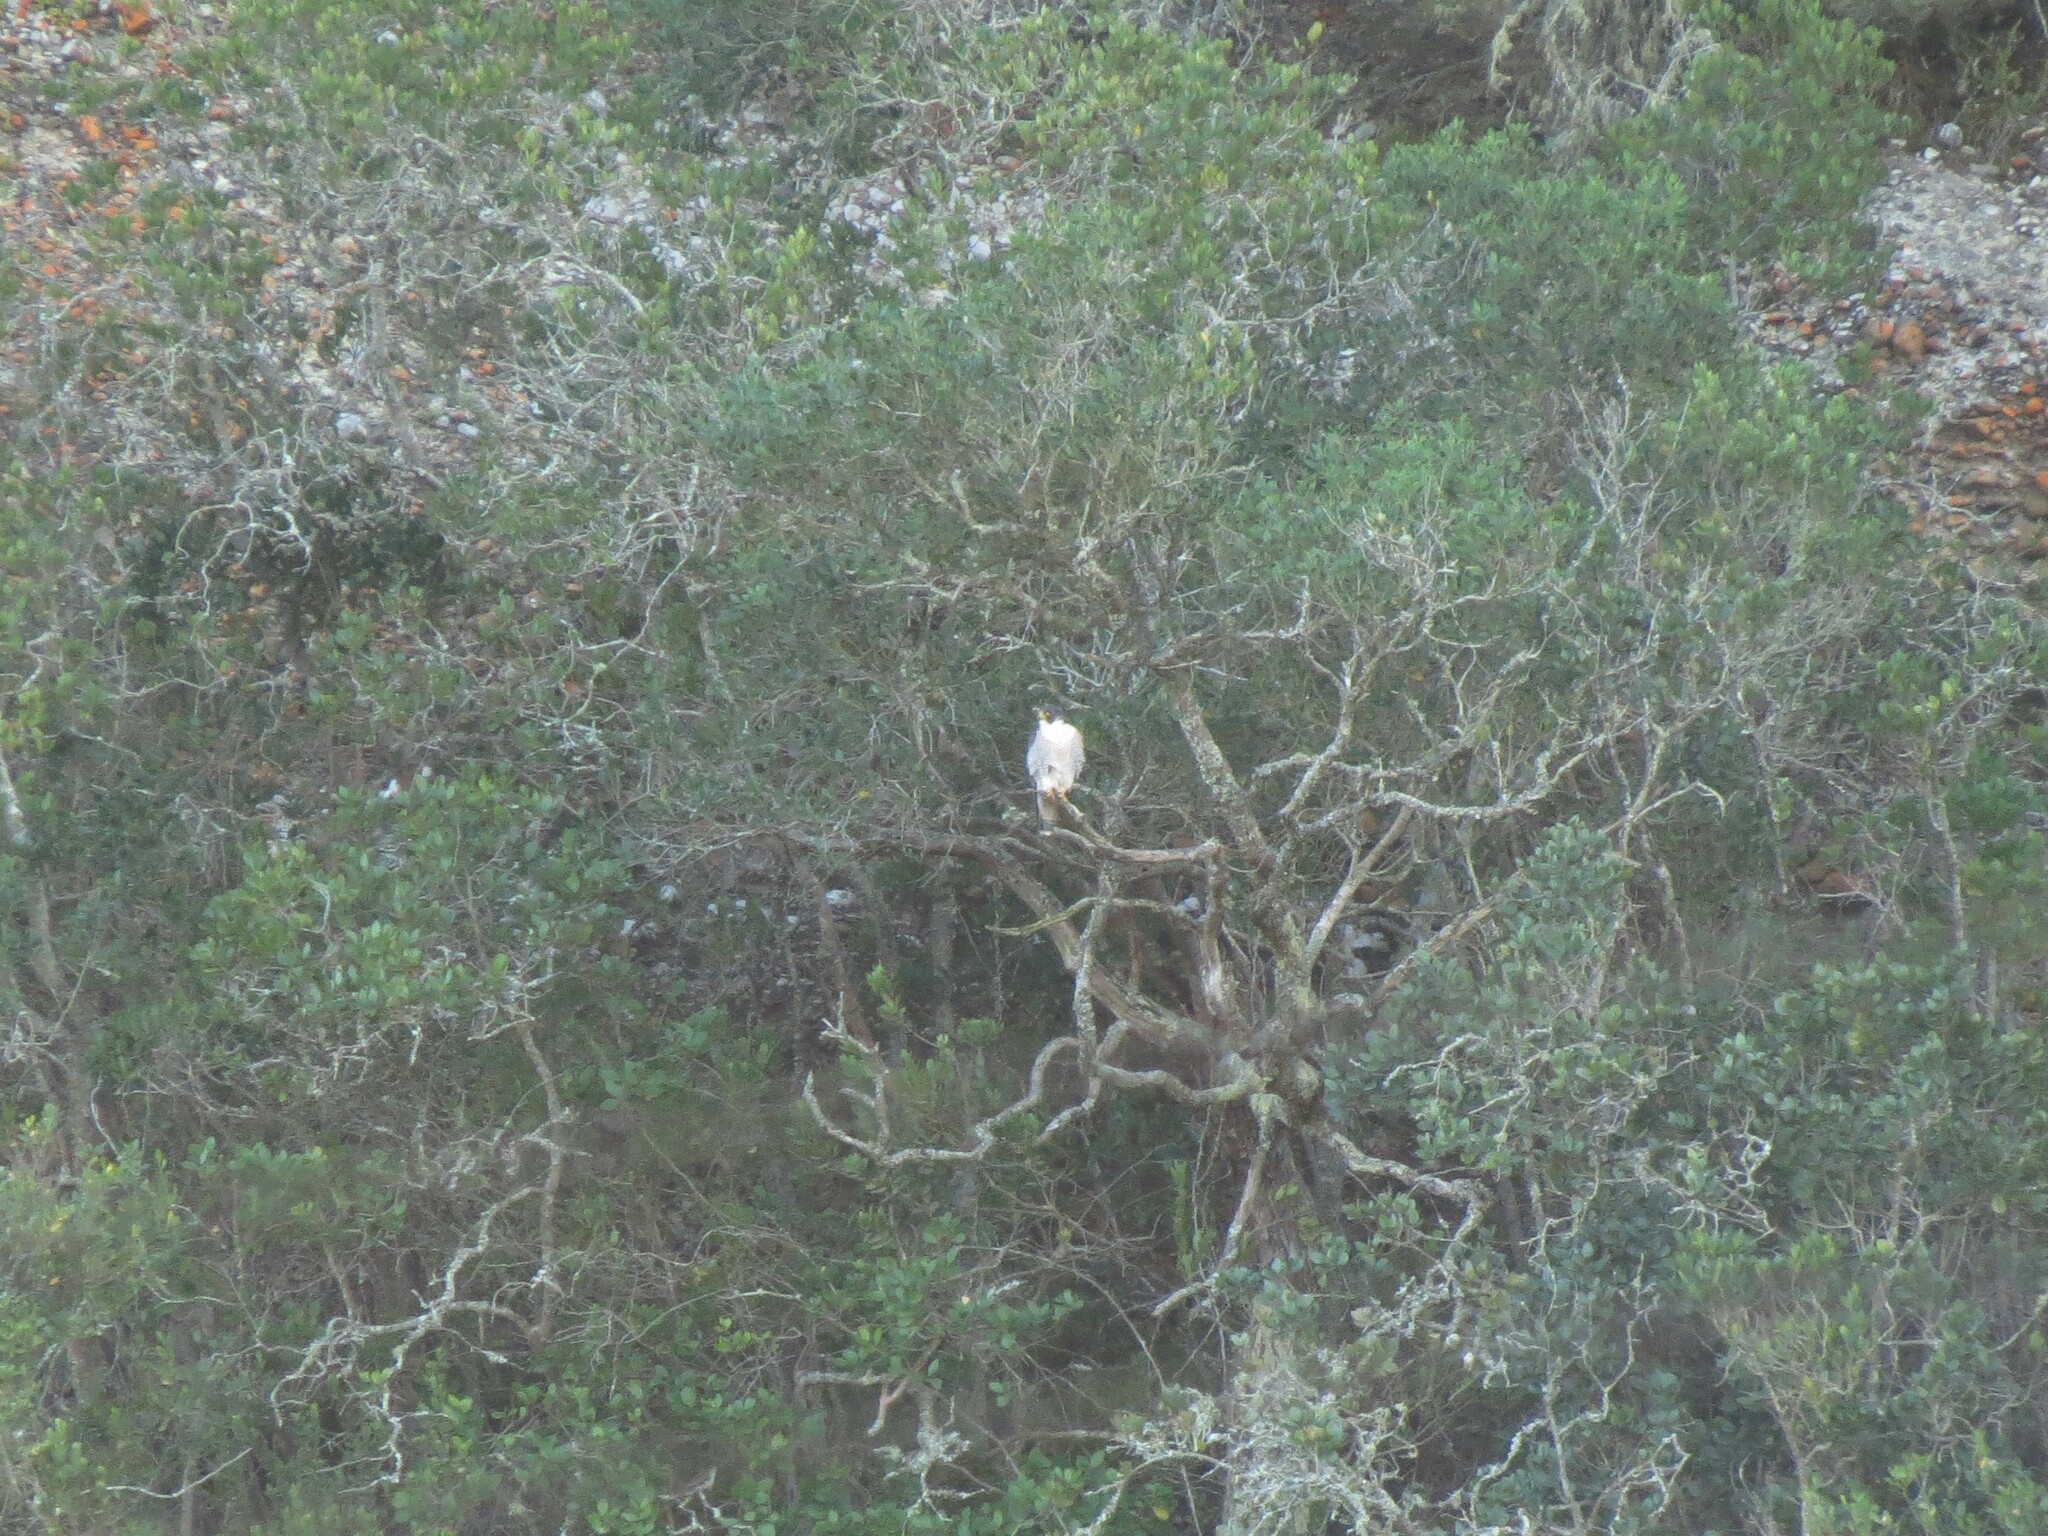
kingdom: Animalia
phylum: Chordata
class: Aves
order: Falconiformes
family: Falconidae
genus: Falco
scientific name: Falco peregrinus
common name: Peregrine falcon
